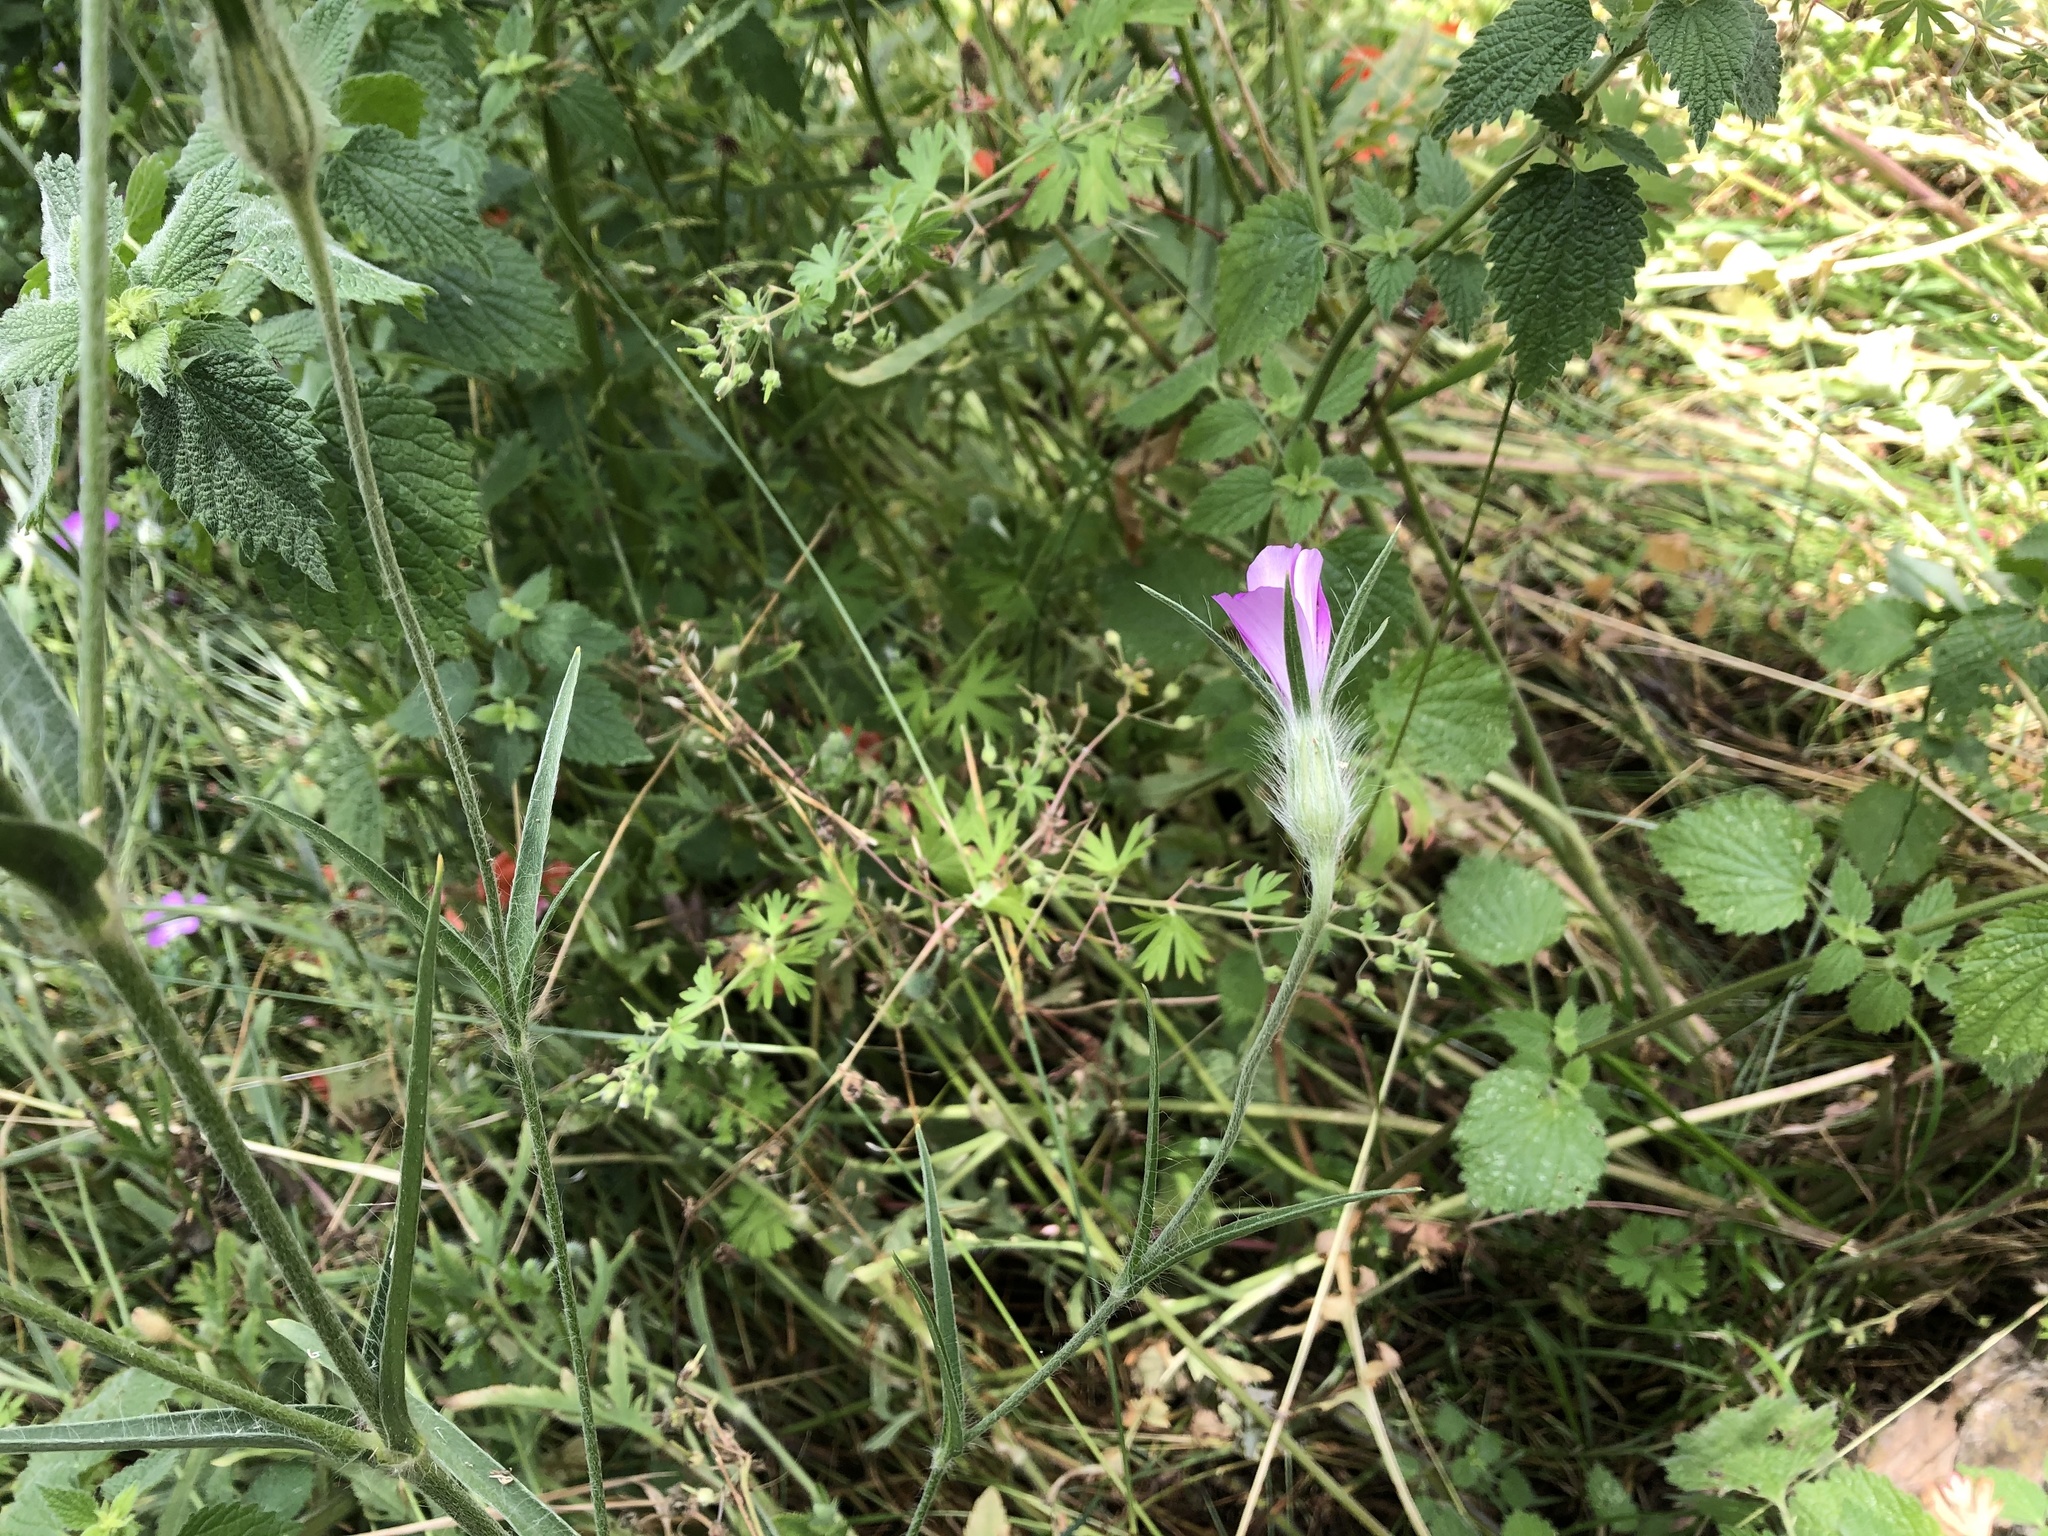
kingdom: Plantae
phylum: Tracheophyta
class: Magnoliopsida
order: Caryophyllales
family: Caryophyllaceae
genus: Agrostemma
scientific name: Agrostemma githago
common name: Common corncockle
